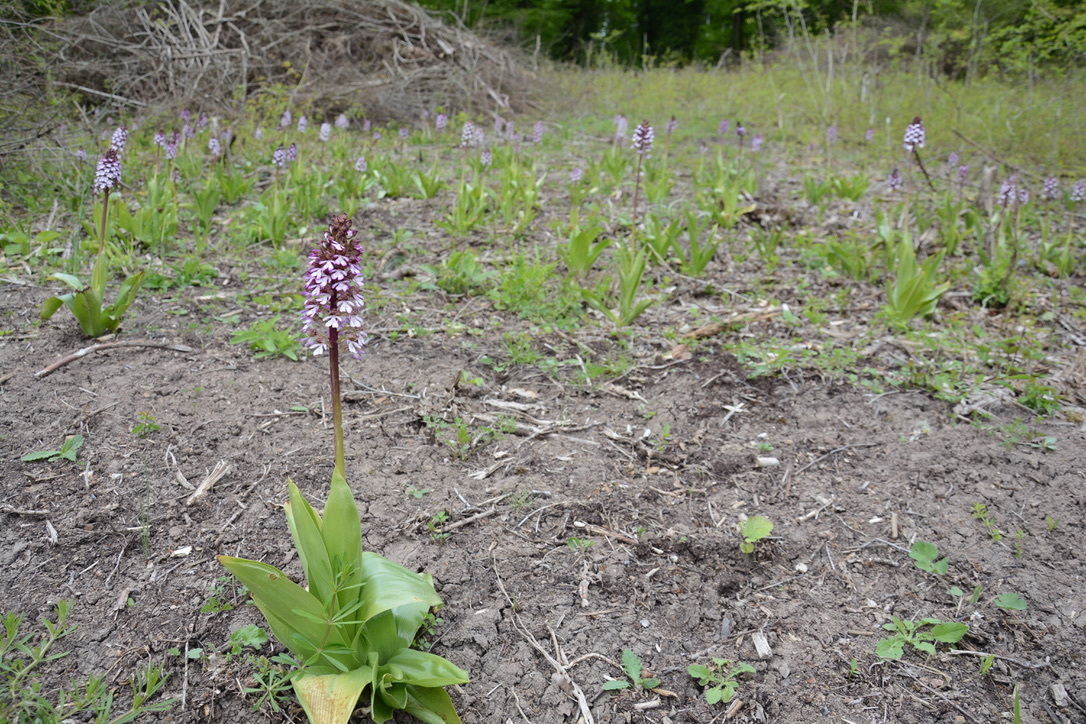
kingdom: Plantae
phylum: Tracheophyta
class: Liliopsida
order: Asparagales
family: Orchidaceae
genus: Orchis
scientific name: Orchis purpurea
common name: Lady orchid
